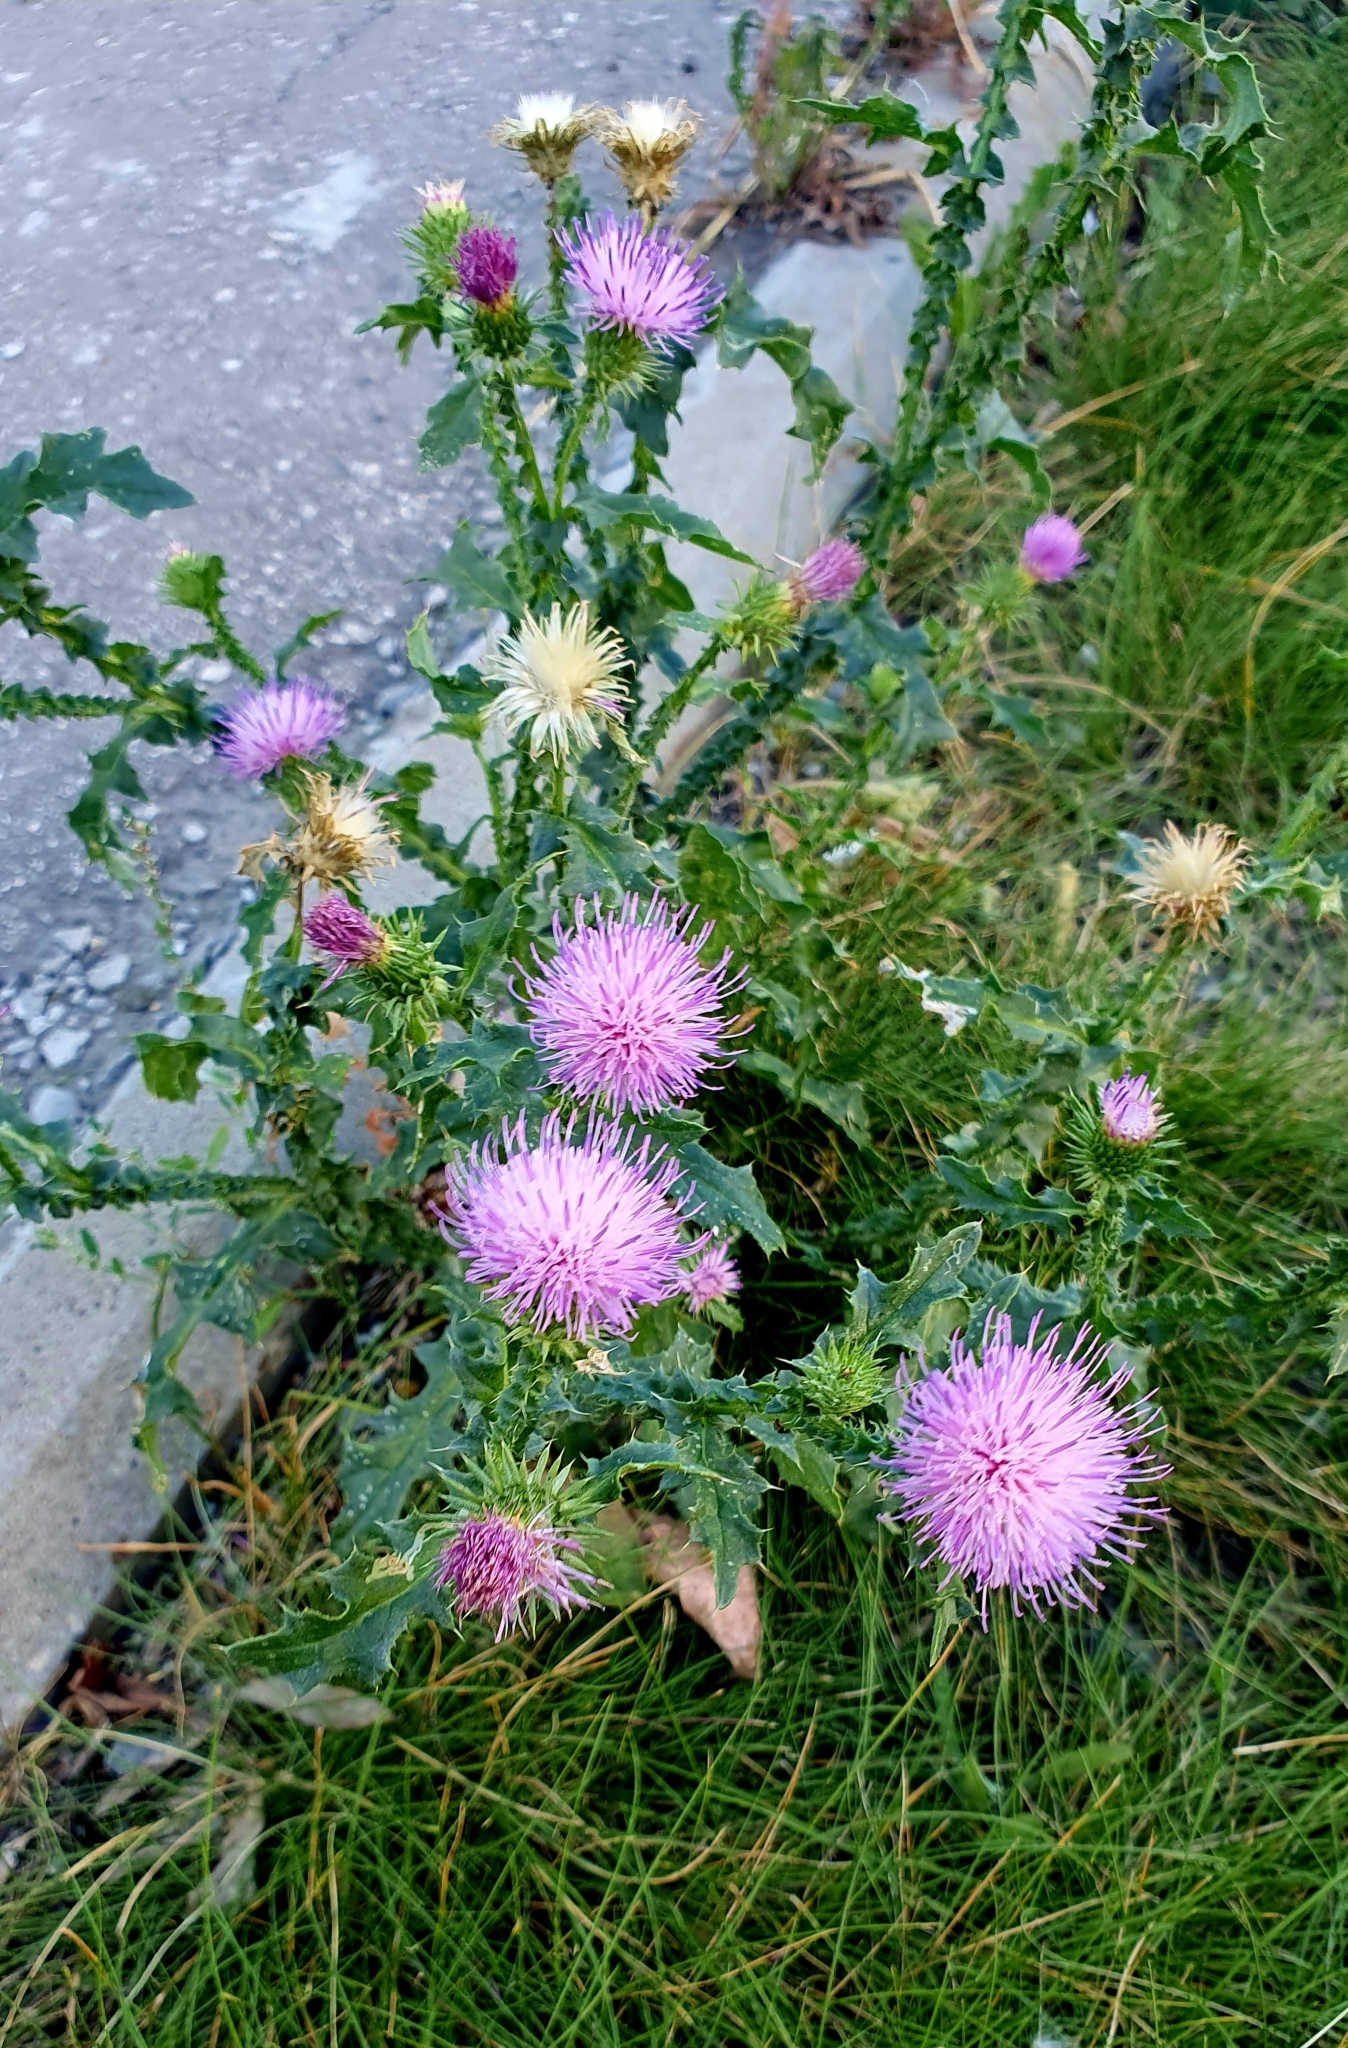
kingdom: Plantae
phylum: Tracheophyta
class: Magnoliopsida
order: Asterales
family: Asteraceae
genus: Carduus
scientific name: Carduus acanthoides
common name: Plumeless thistle
